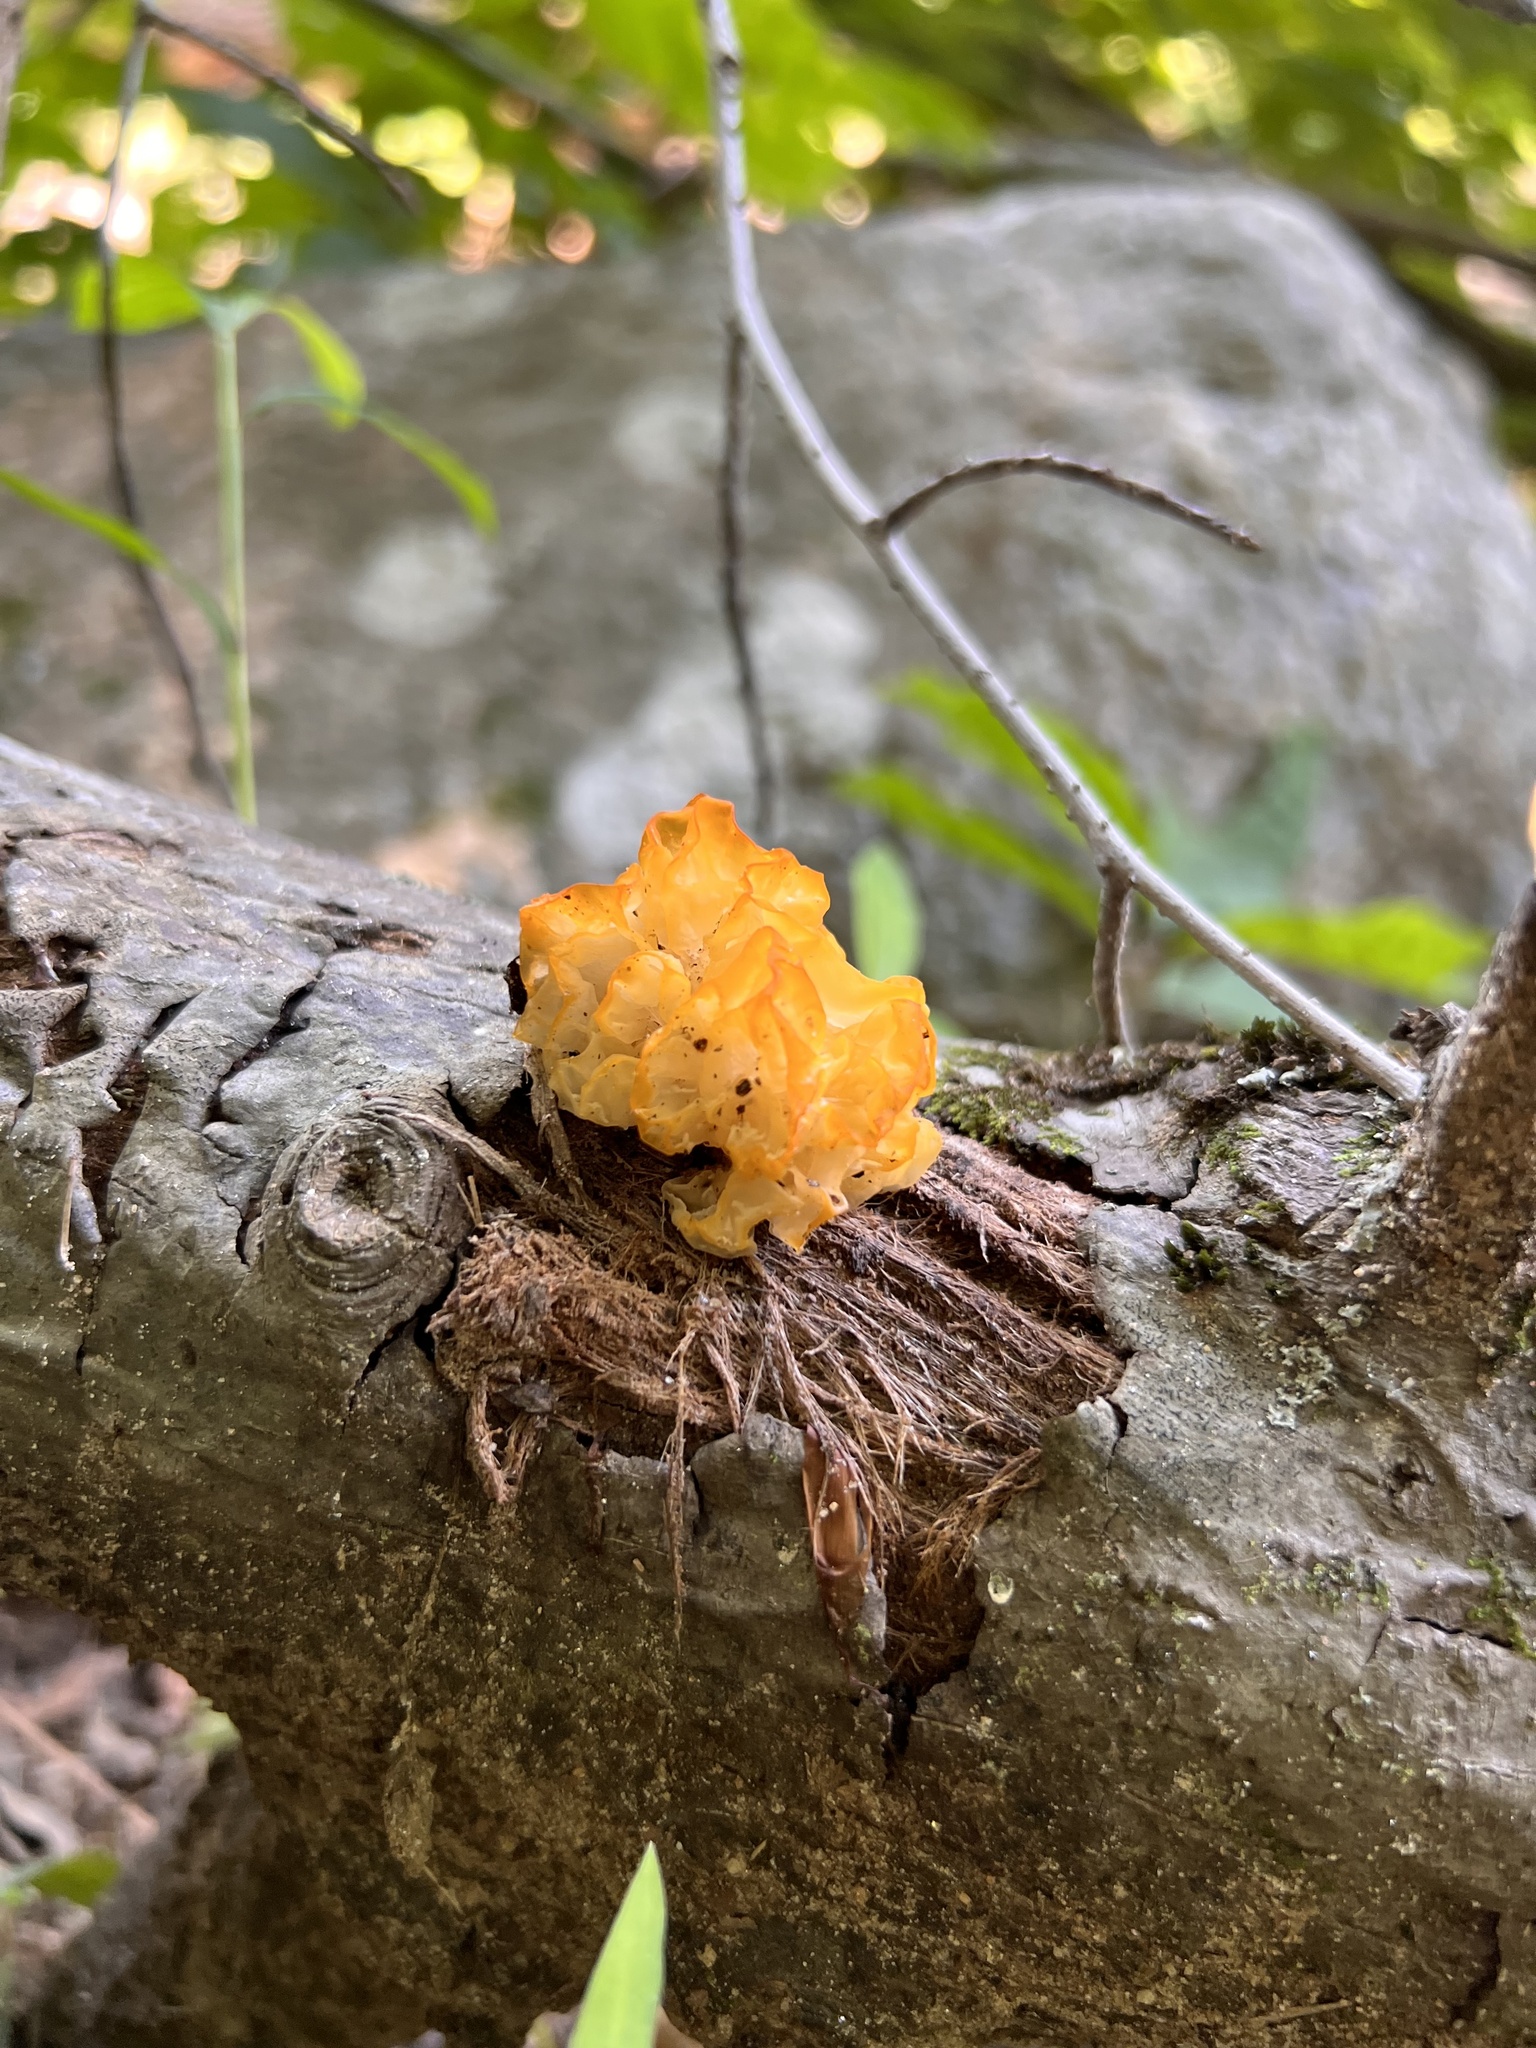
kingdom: Fungi
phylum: Basidiomycota
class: Tremellomycetes
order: Tremellales
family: Tremellaceae
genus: Tremella
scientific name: Tremella mesenterica
